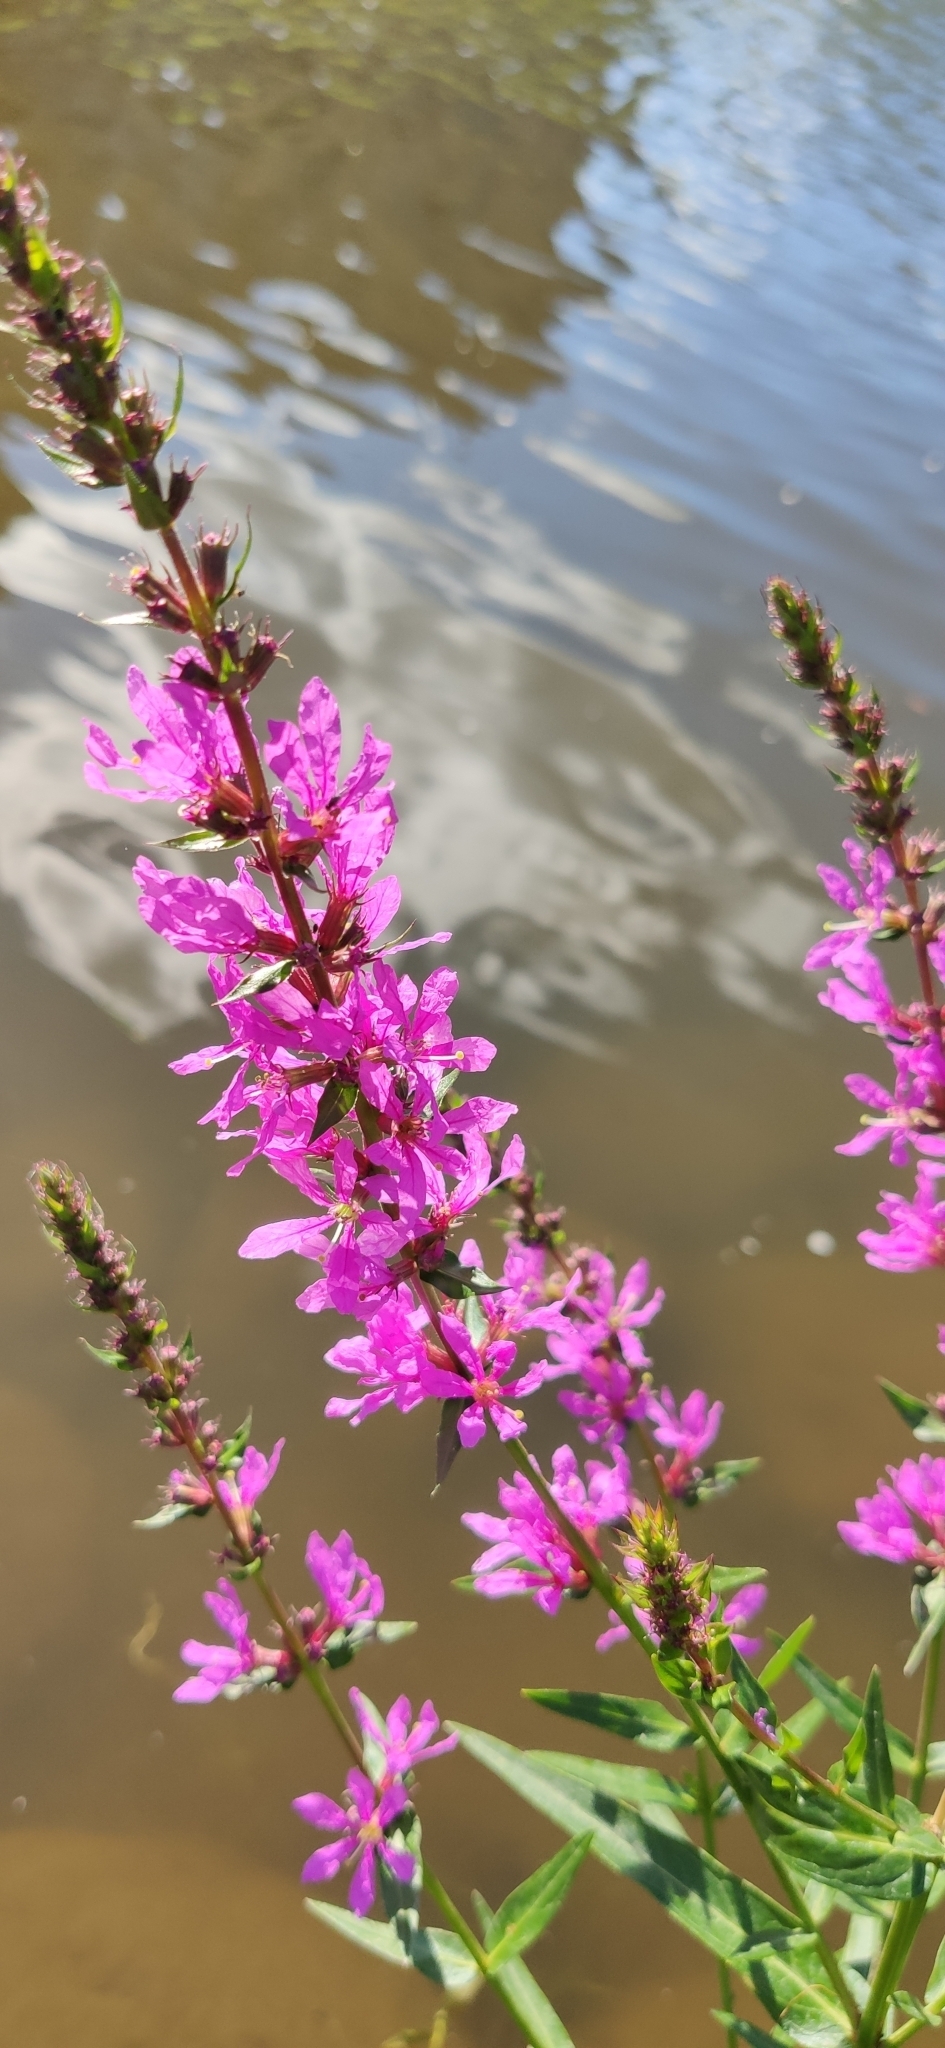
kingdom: Plantae
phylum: Tracheophyta
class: Magnoliopsida
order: Myrtales
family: Lythraceae
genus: Lythrum
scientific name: Lythrum salicaria
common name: Purple loosestrife
